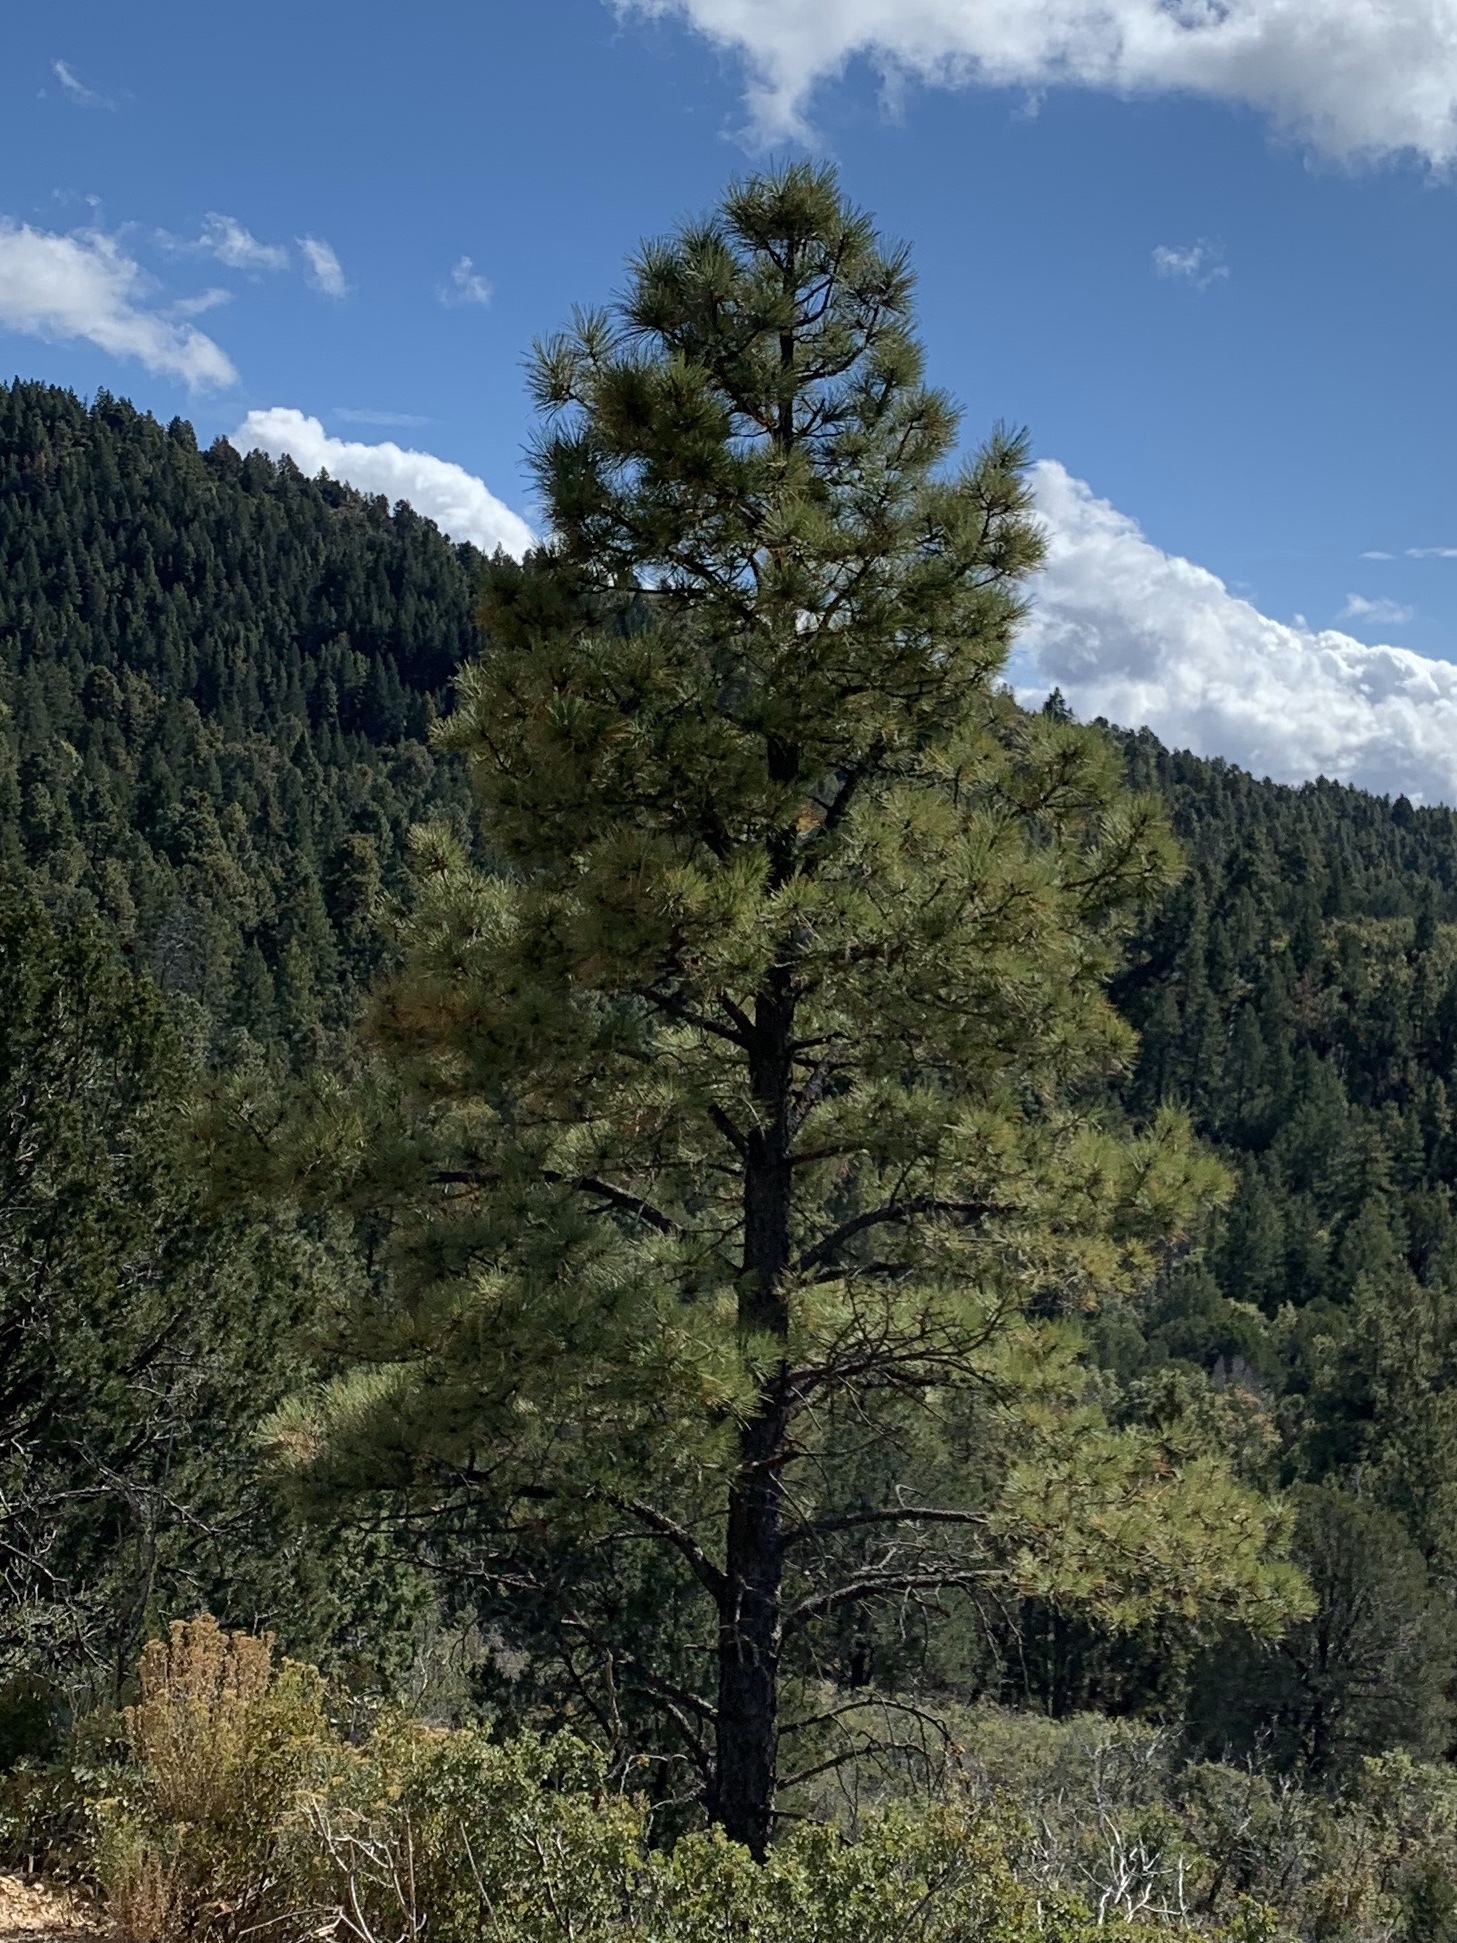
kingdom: Plantae
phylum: Tracheophyta
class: Pinopsida
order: Pinales
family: Pinaceae
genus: Pinus
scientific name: Pinus ponderosa
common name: Western yellow-pine
